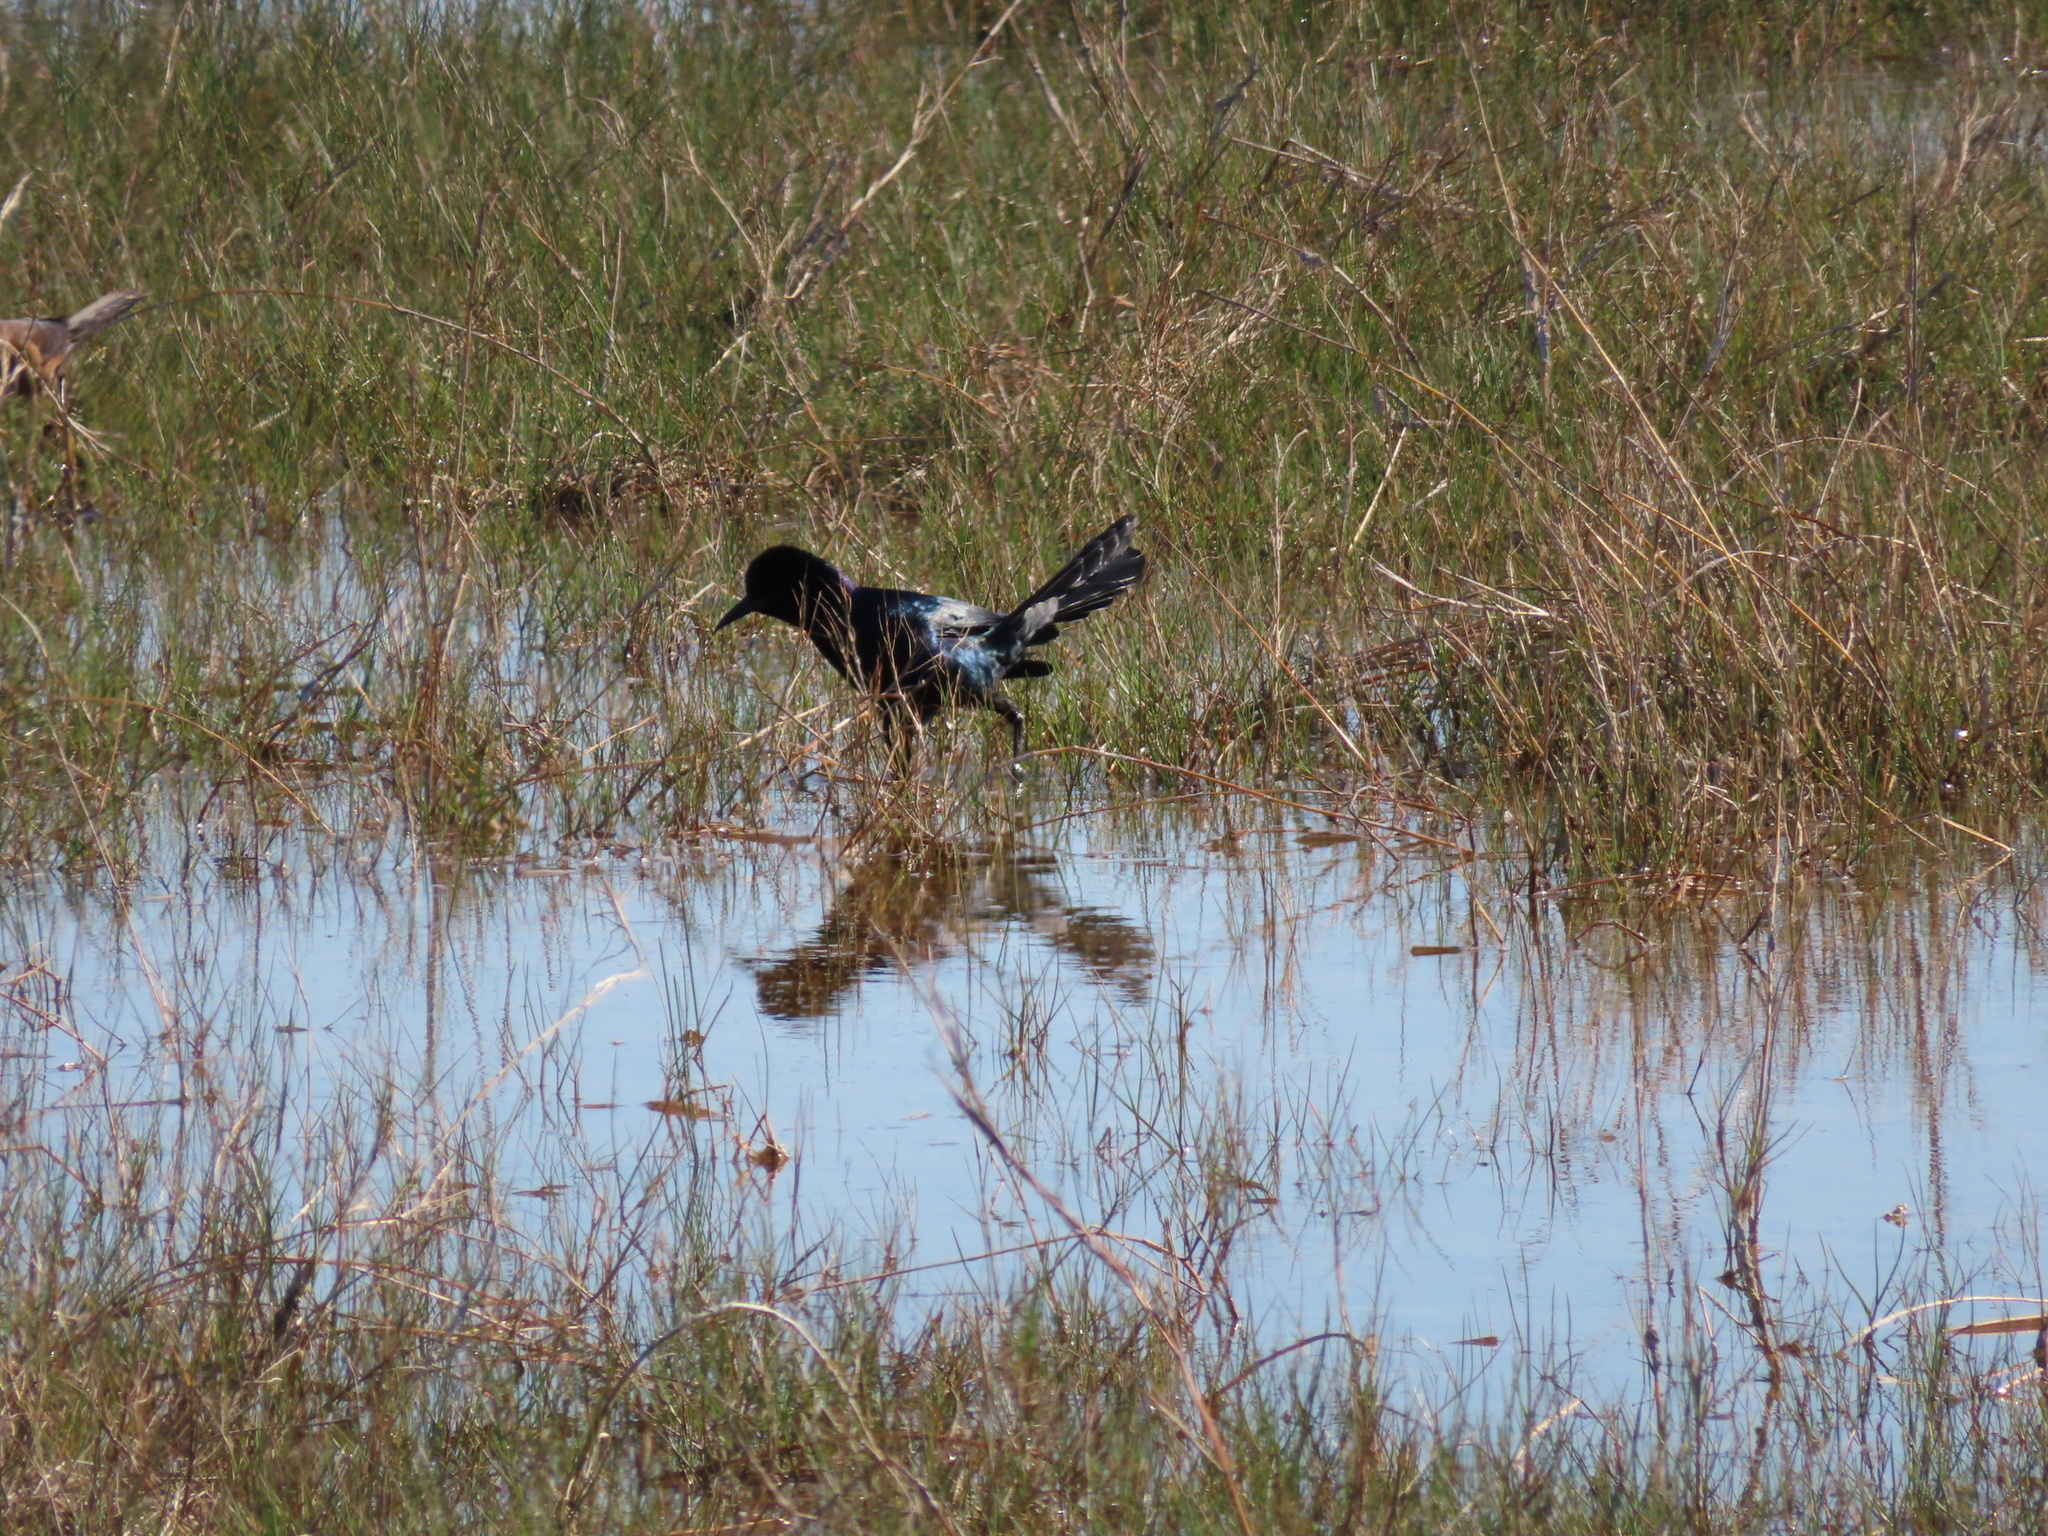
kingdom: Animalia
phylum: Chordata
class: Aves
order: Passeriformes
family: Icteridae
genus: Quiscalus
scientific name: Quiscalus major
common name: Boat-tailed grackle
